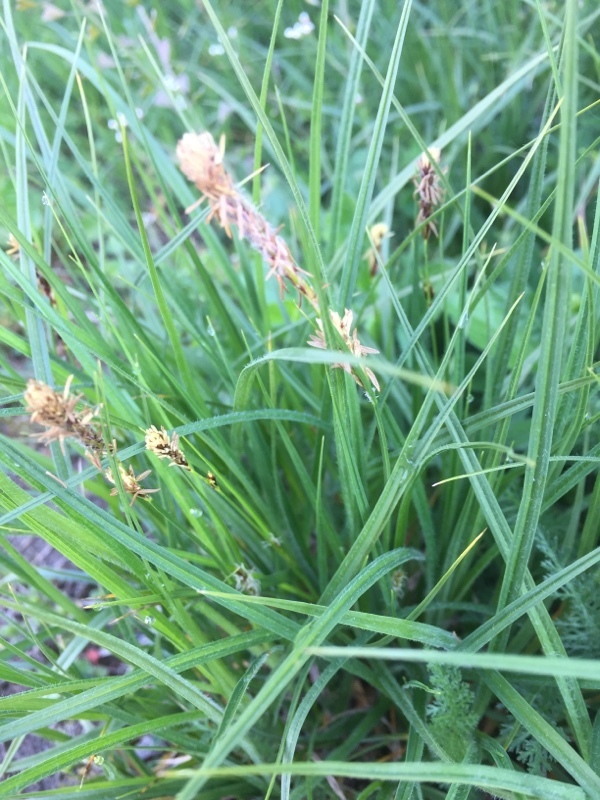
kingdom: Plantae
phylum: Tracheophyta
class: Liliopsida
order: Poales
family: Cyperaceae
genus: Carex
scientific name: Carex hirta
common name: Hairy sedge
